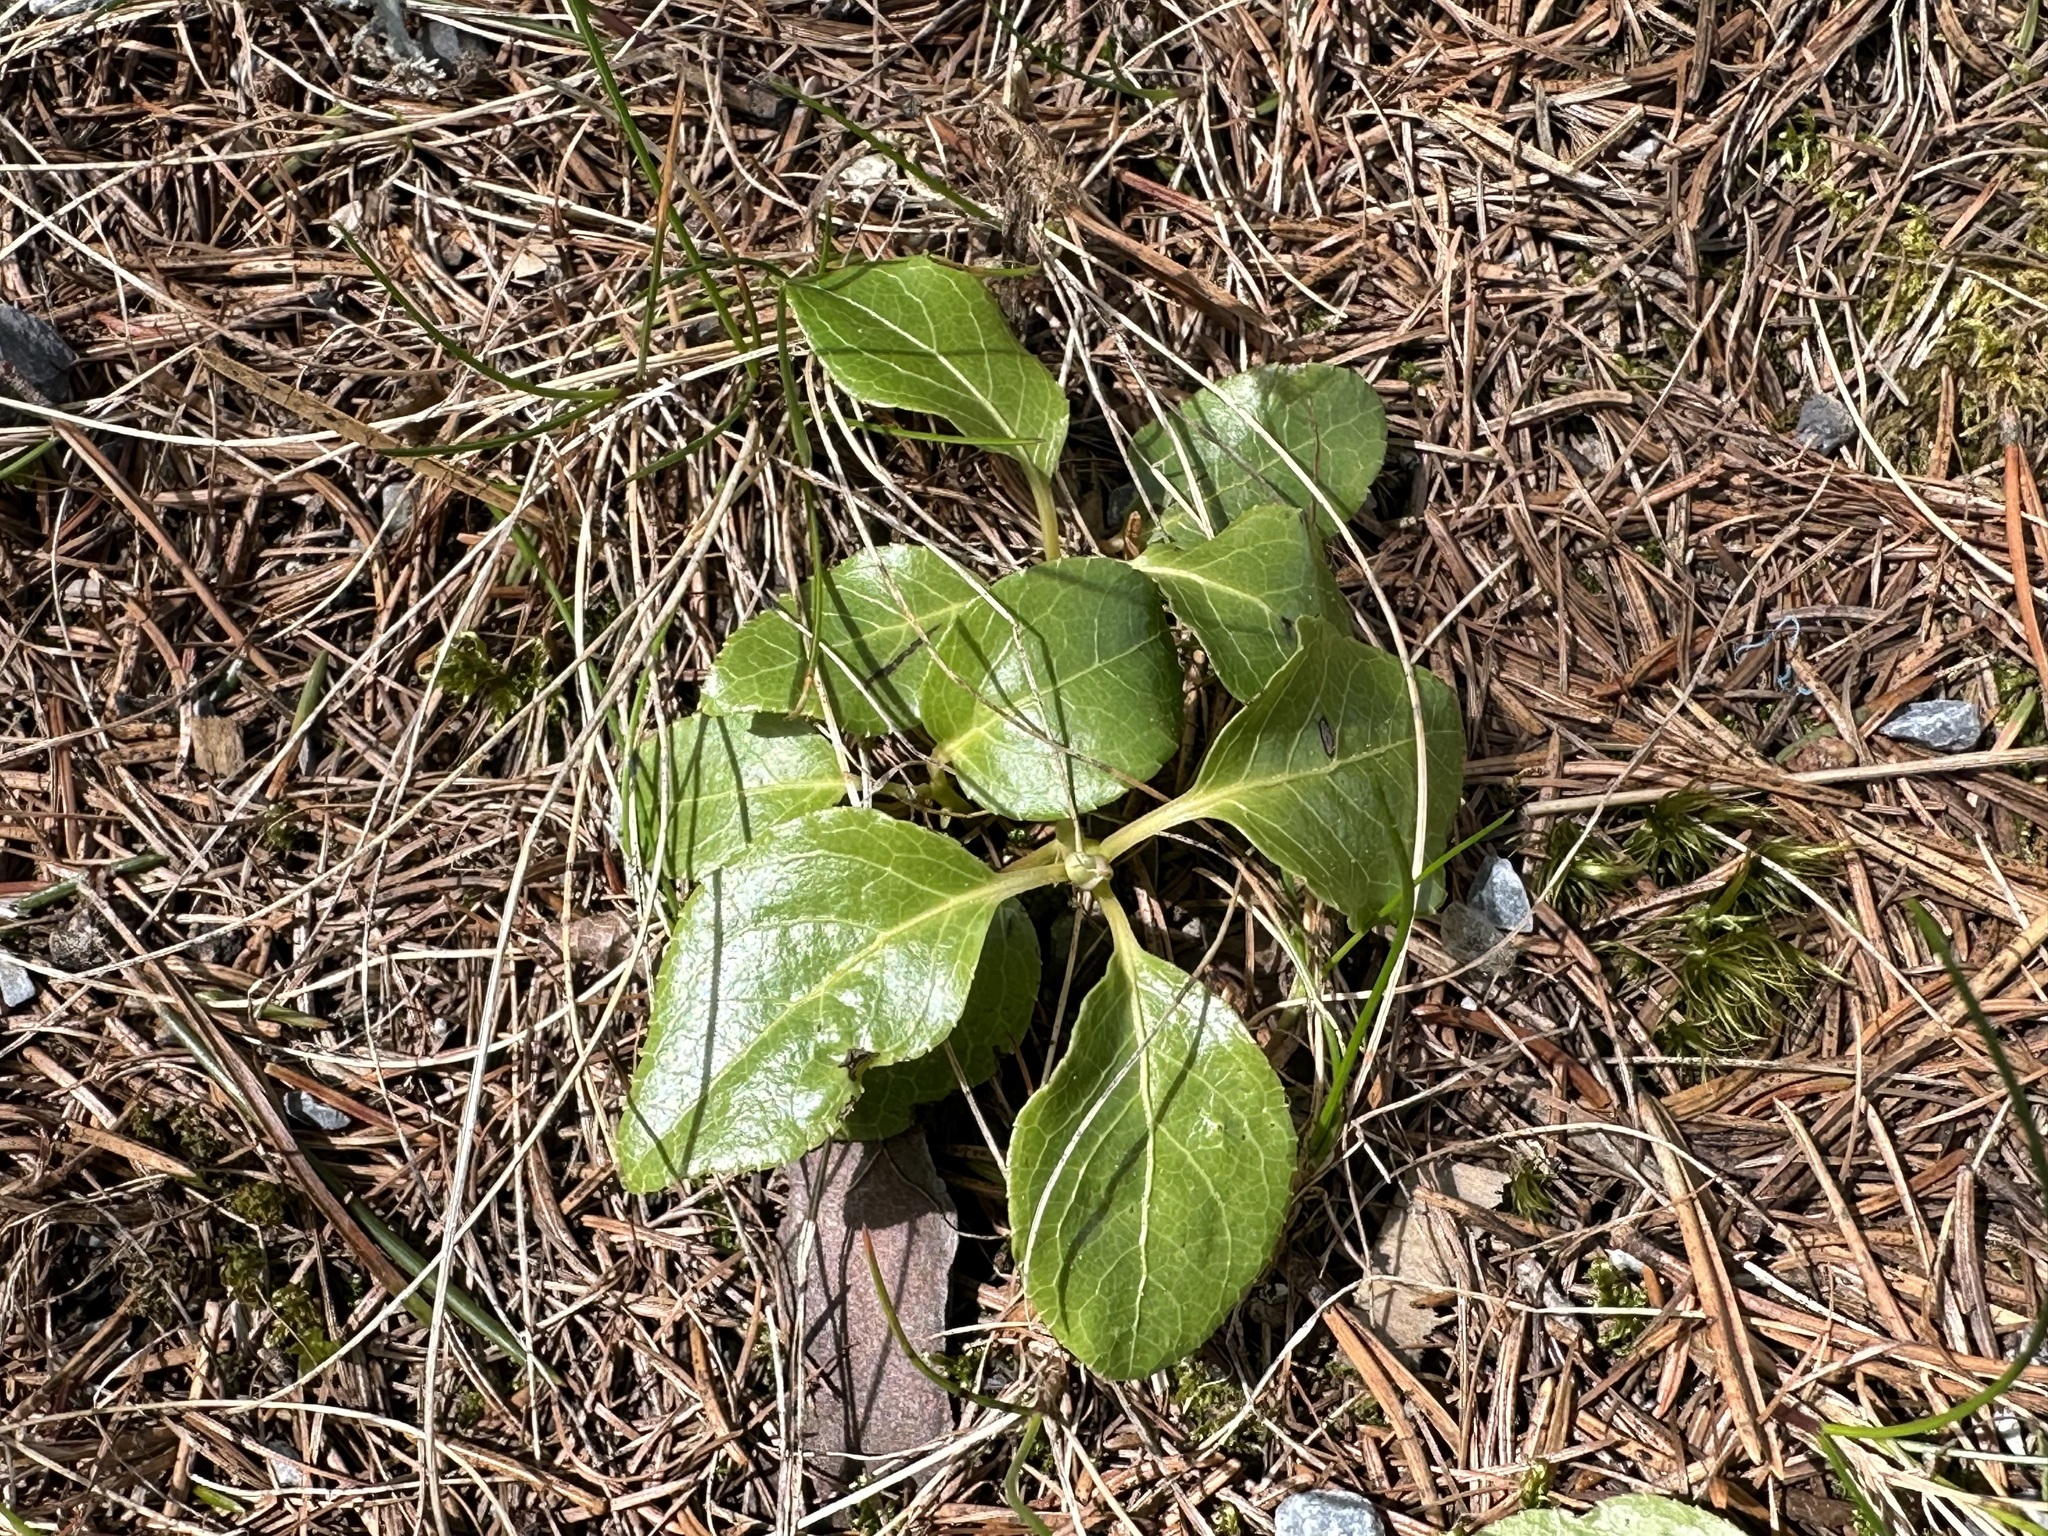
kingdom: Plantae
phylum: Tracheophyta
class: Magnoliopsida
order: Ericales
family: Ericaceae
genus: Orthilia
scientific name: Orthilia secunda
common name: One-sided orthilia
